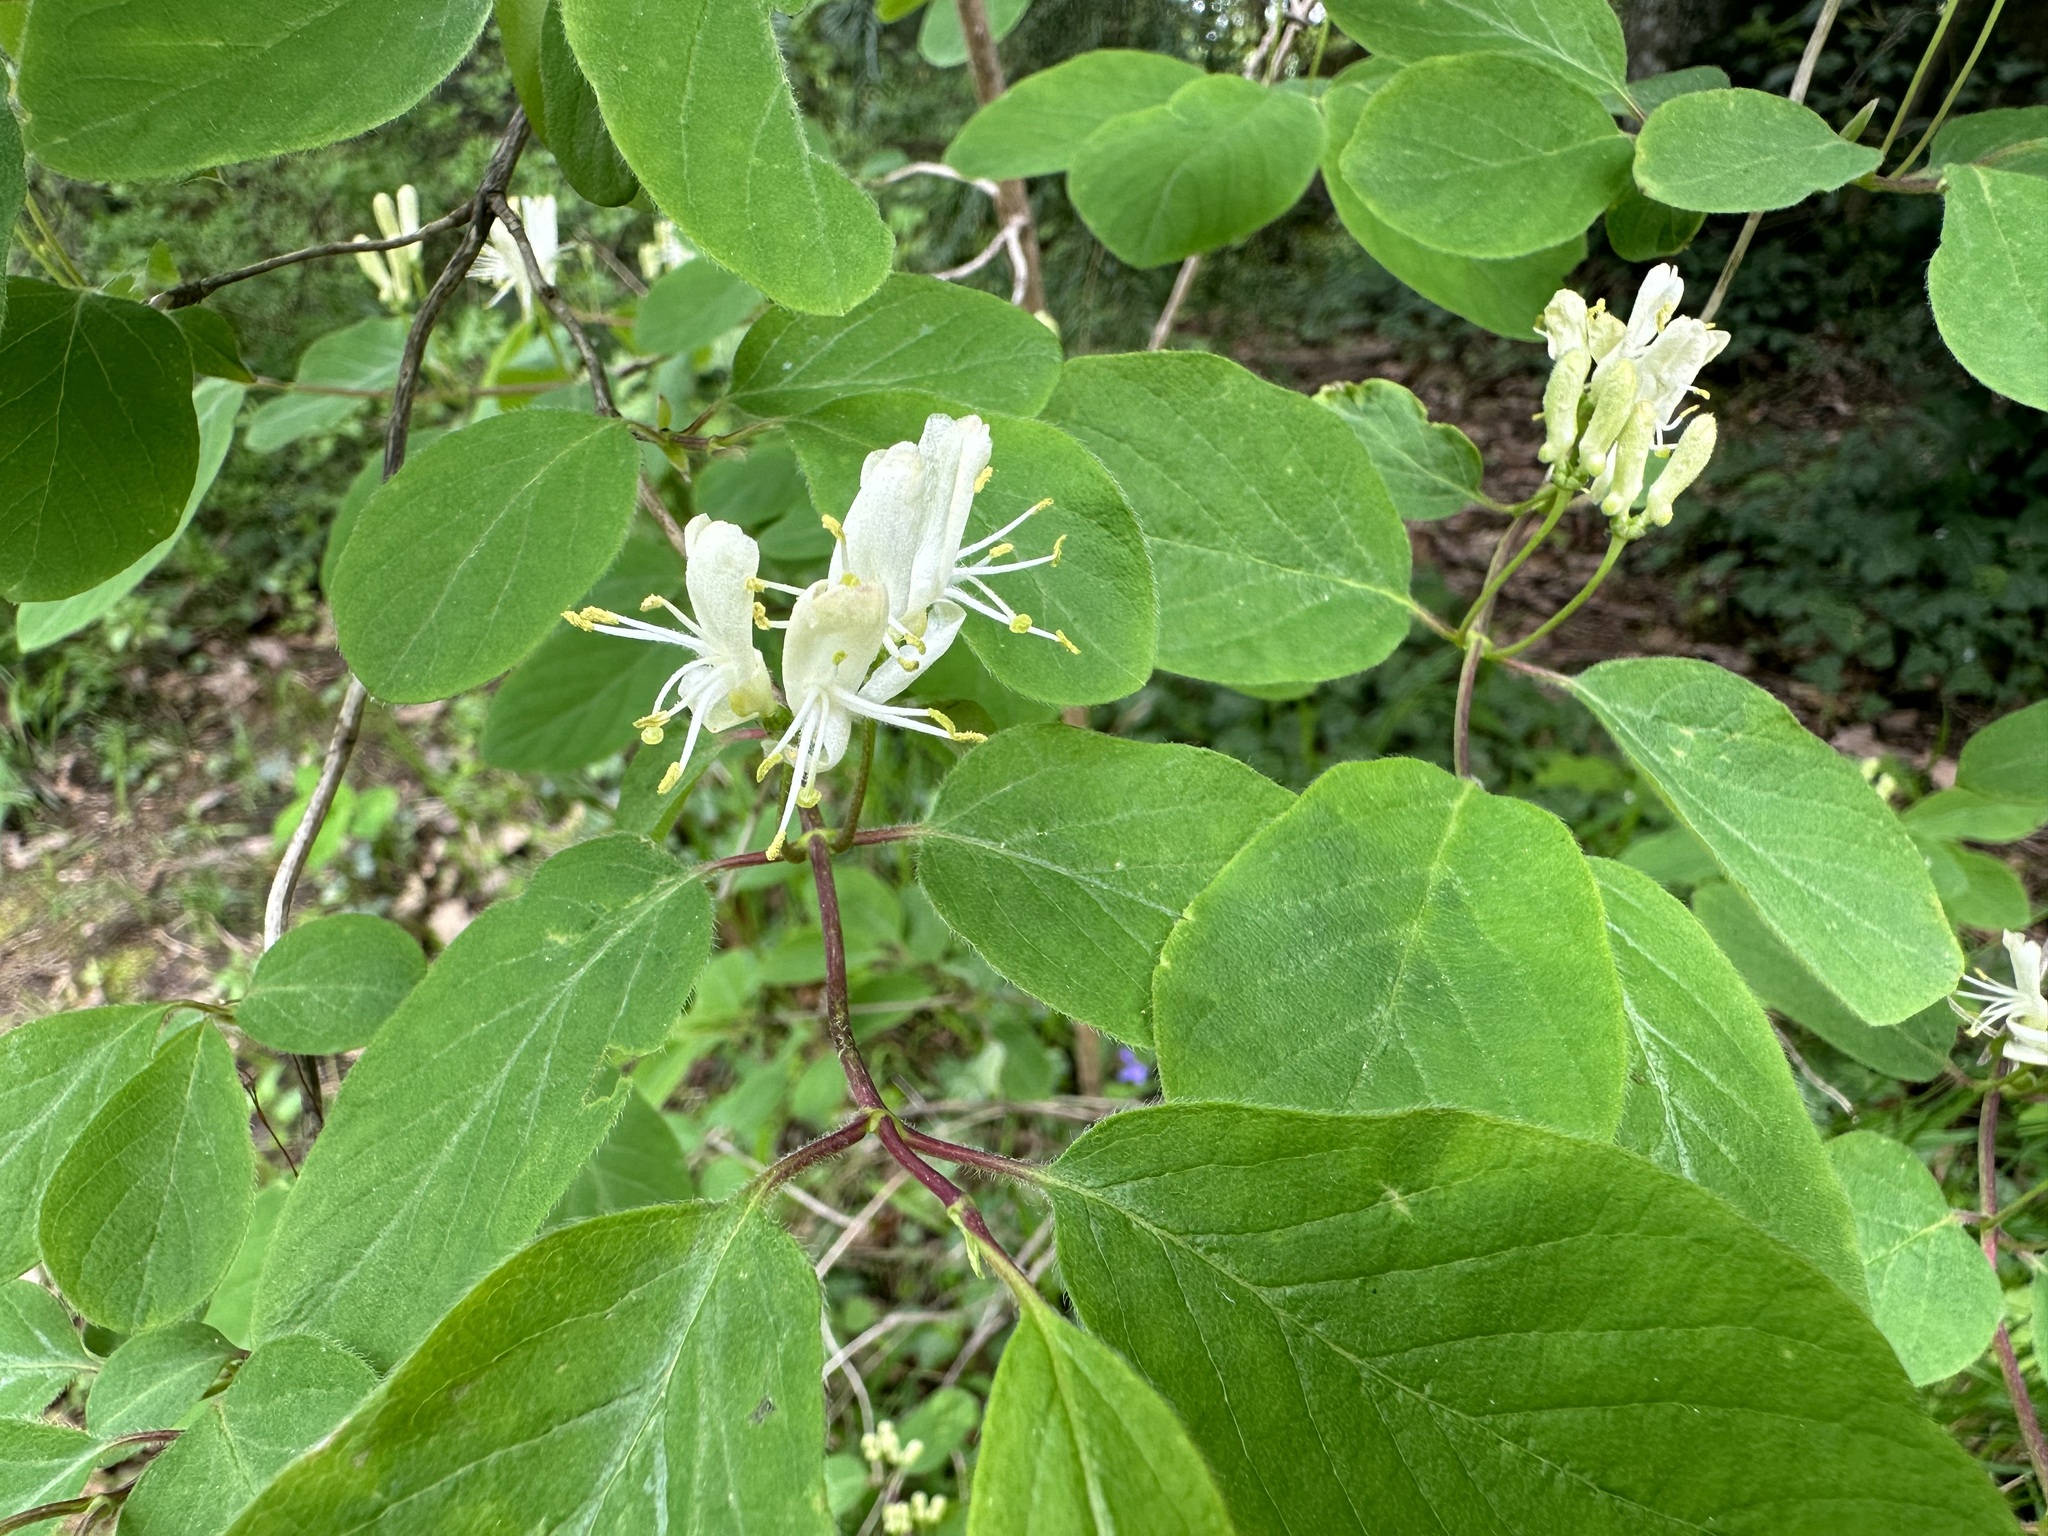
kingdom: Plantae
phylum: Tracheophyta
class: Magnoliopsida
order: Dipsacales
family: Caprifoliaceae
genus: Lonicera
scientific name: Lonicera xylosteum
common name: Fly honeysuckle
